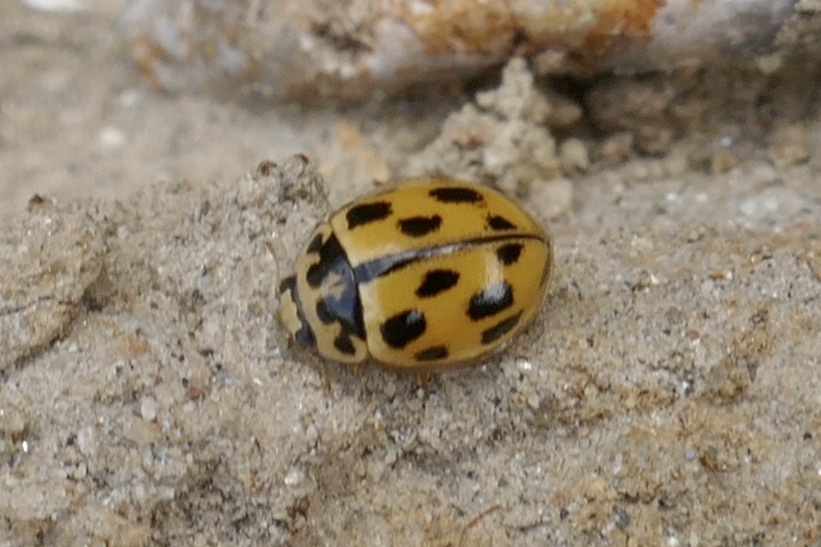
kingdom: Animalia
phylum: Arthropoda
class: Insecta
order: Coleoptera
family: Coccinellidae
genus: Propylaea
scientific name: Propylaea quatuordecimpunctata
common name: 14-spotted ladybird beetle
